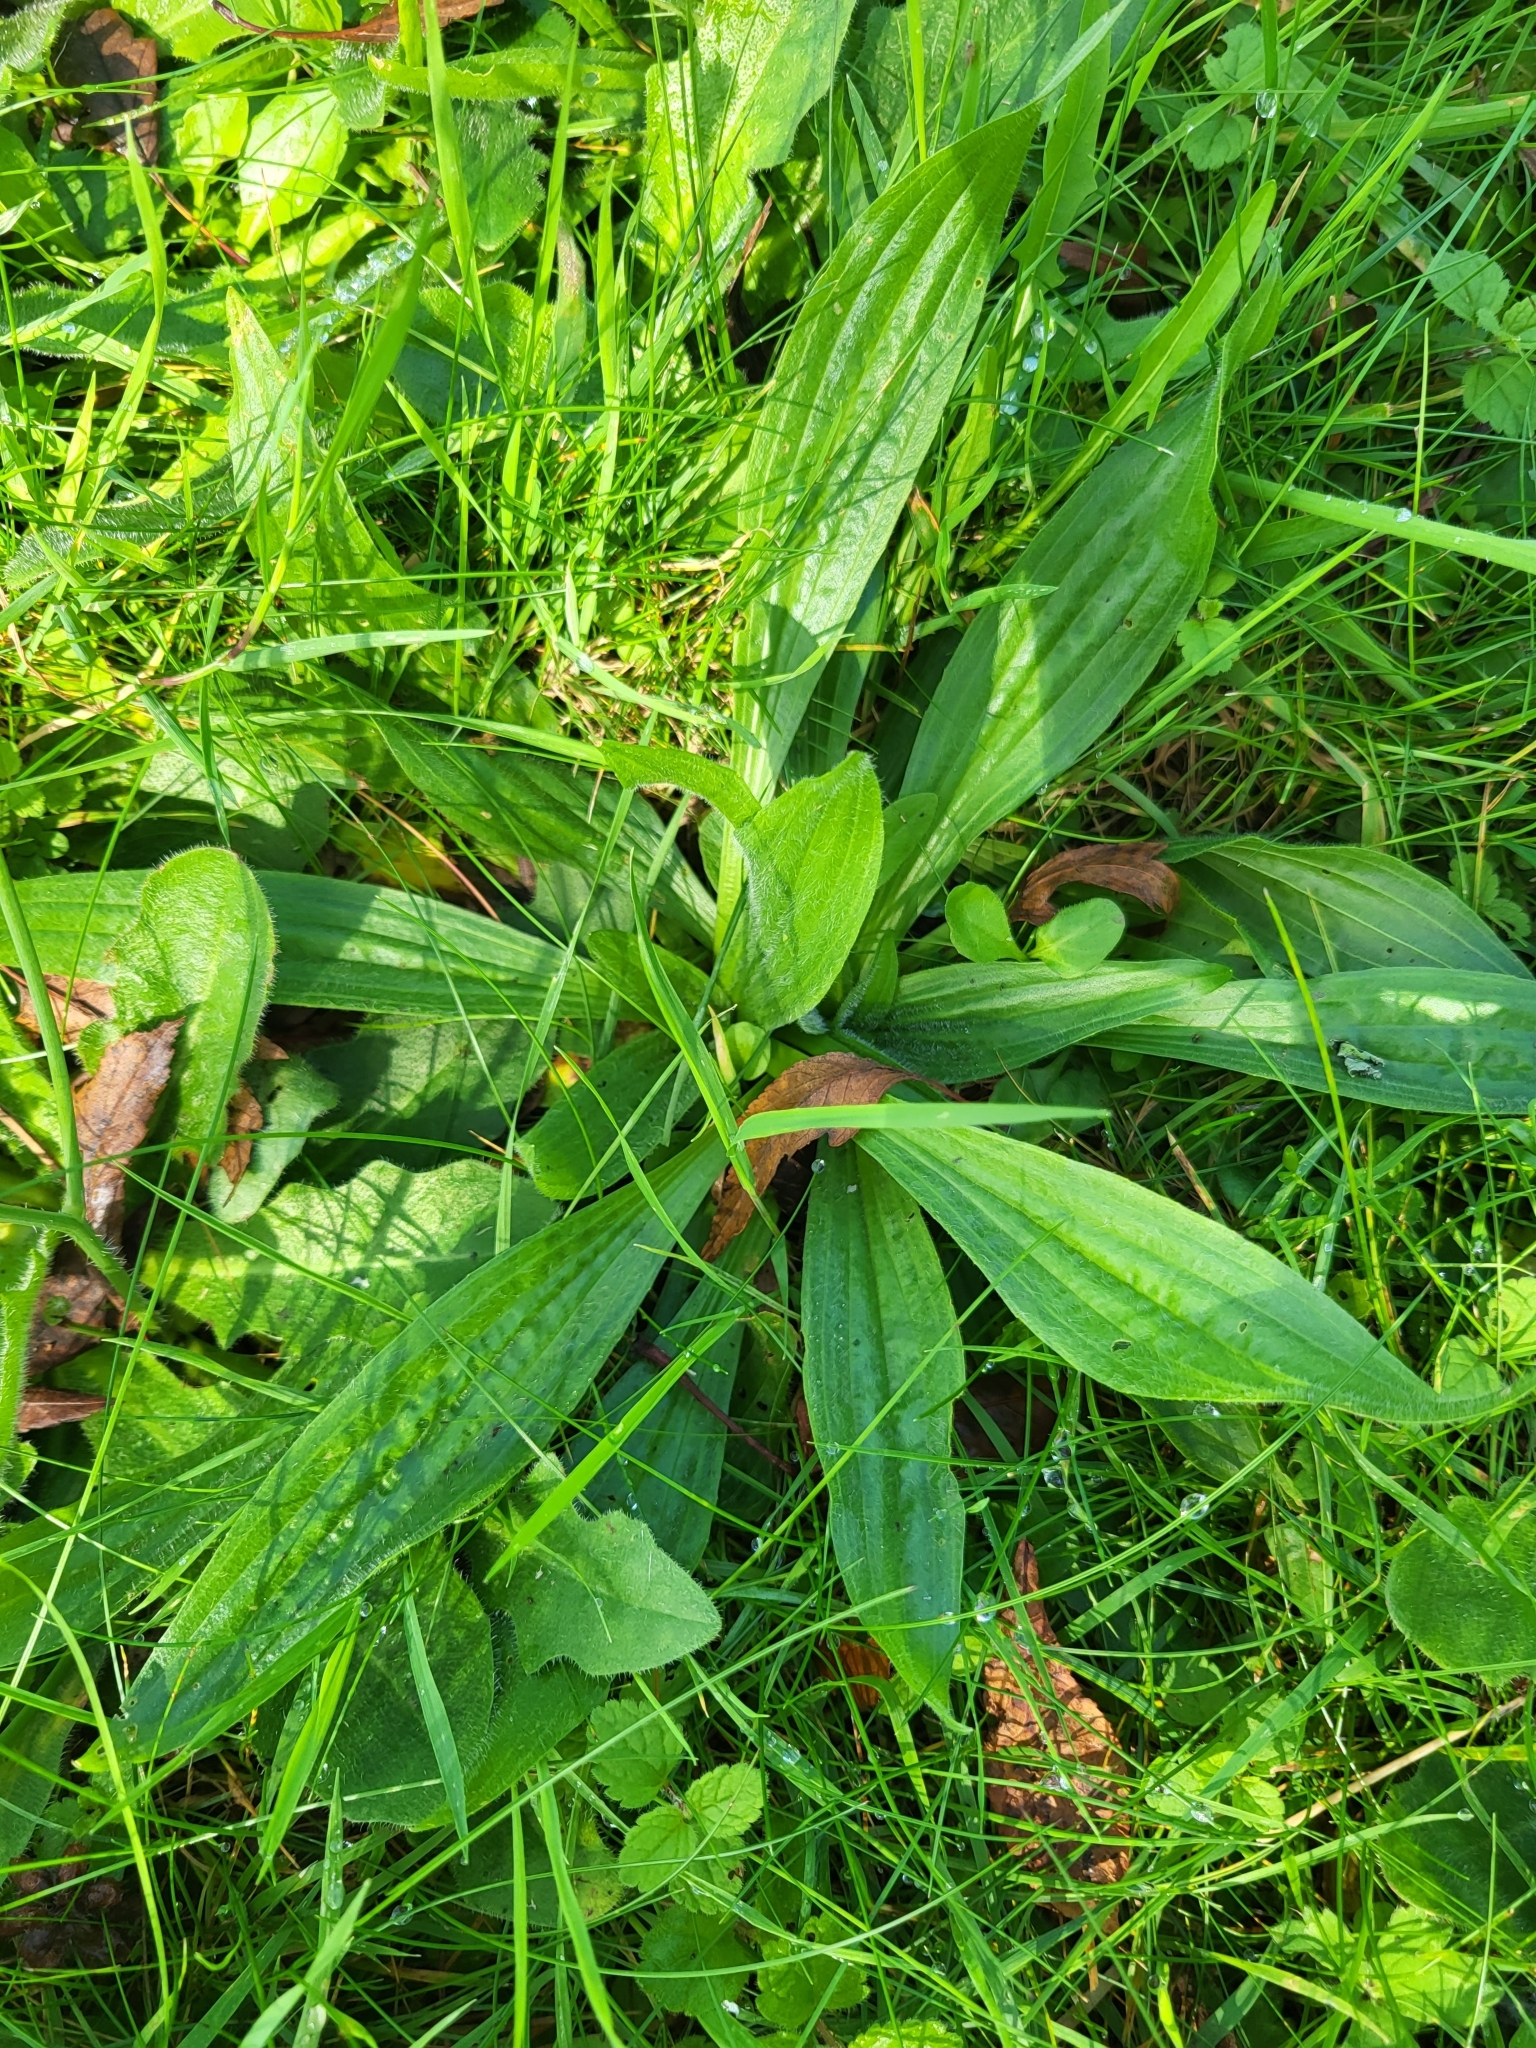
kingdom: Plantae
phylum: Tracheophyta
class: Magnoliopsida
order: Lamiales
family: Plantaginaceae
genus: Plantago
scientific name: Plantago lanceolata
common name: Ribwort plantain
